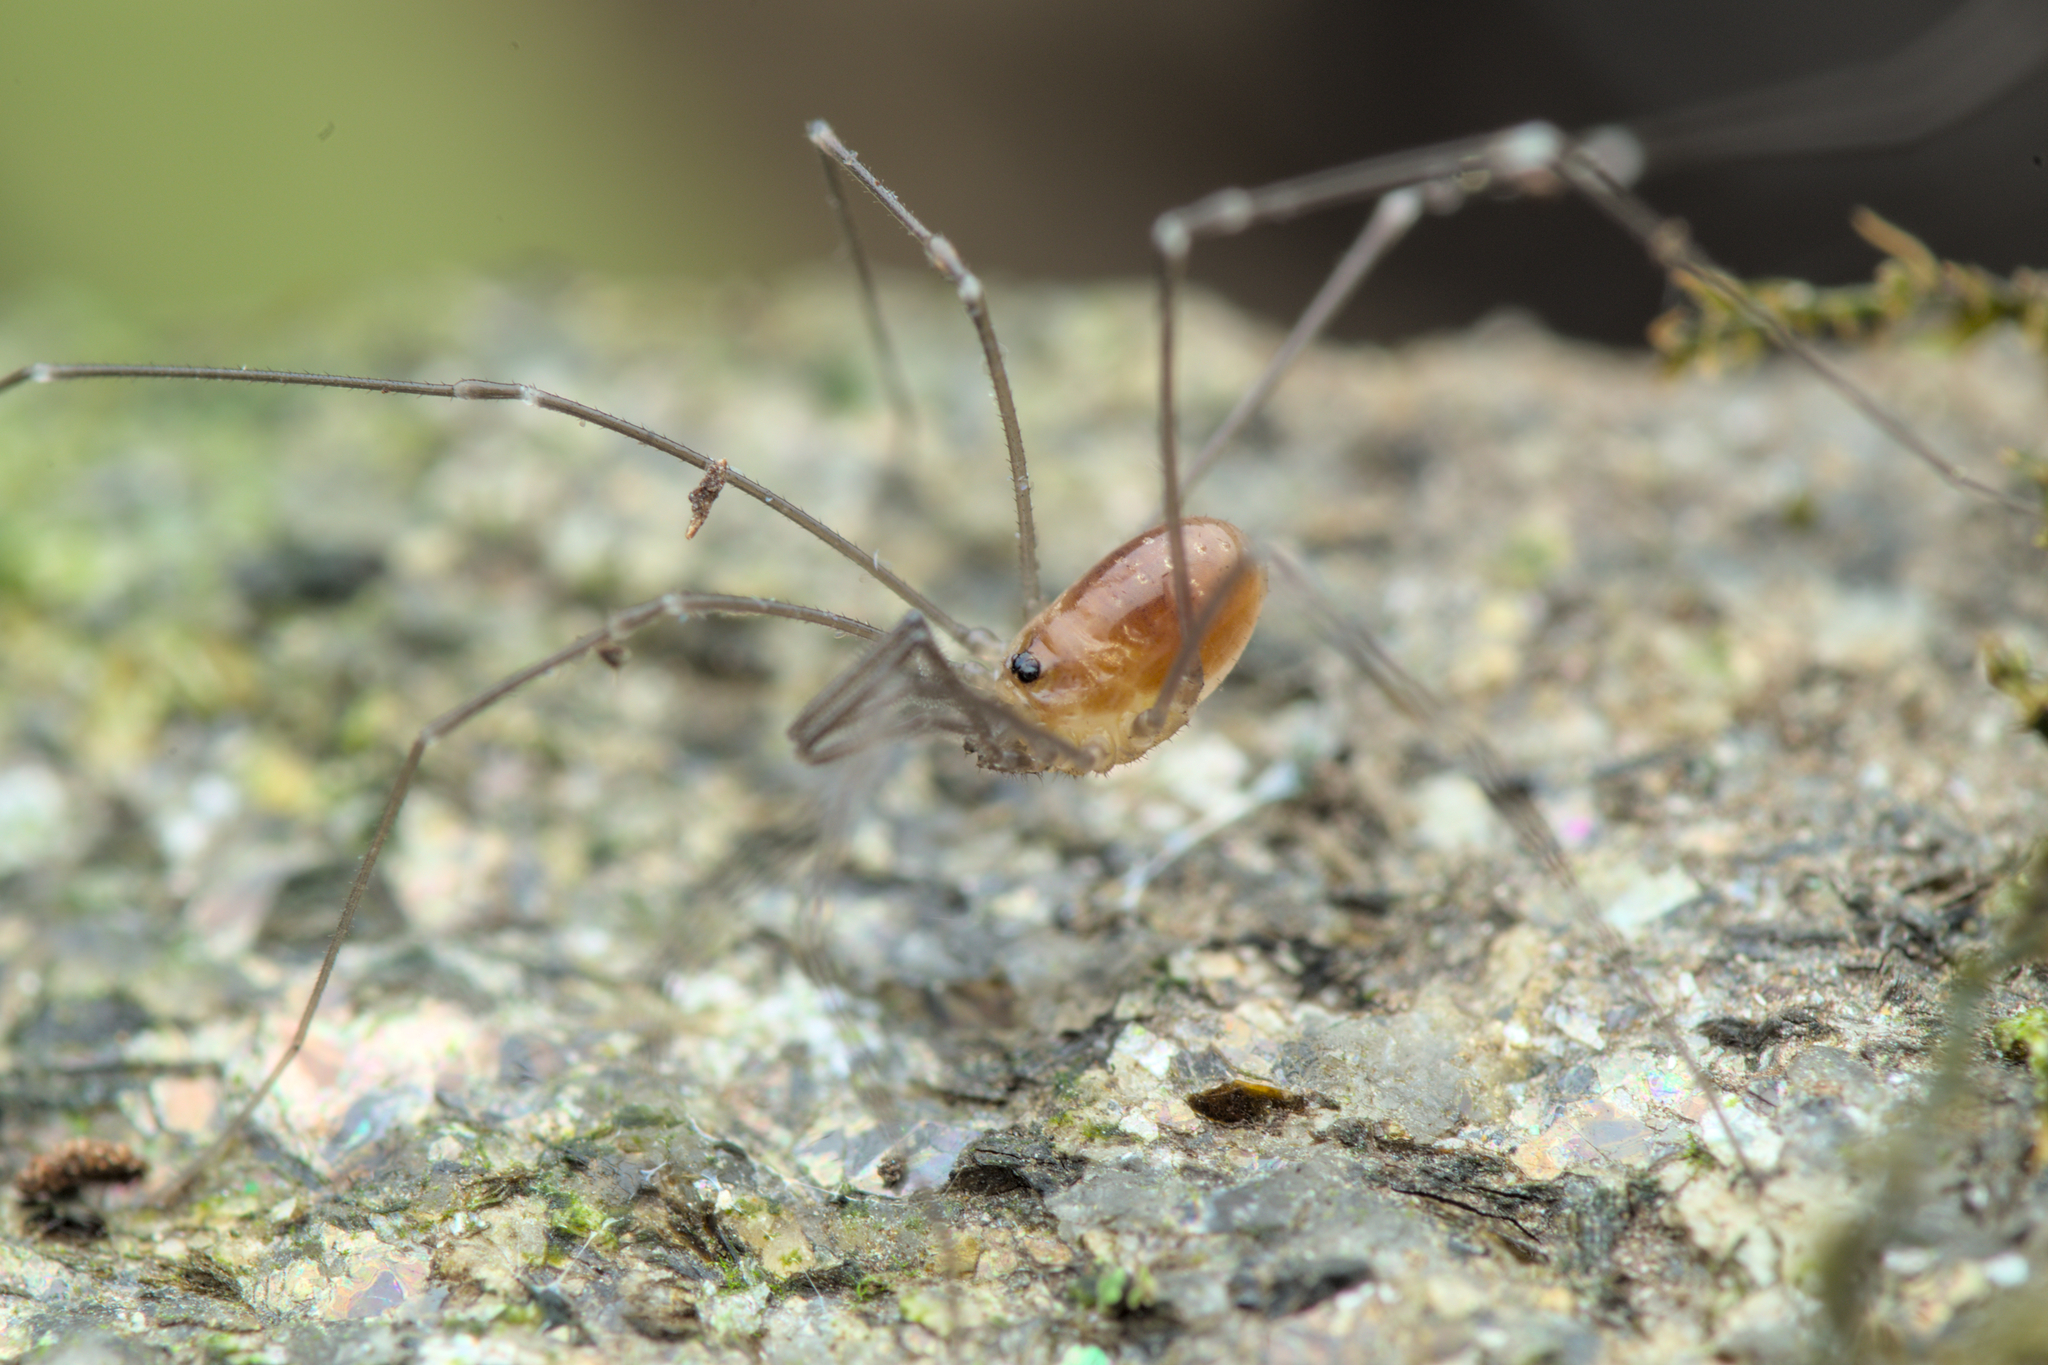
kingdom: Animalia
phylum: Arthropoda
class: Arachnida
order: Opiliones
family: Nemastomatidae
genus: Mitostoma
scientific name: Mitostoma chrysomelas
